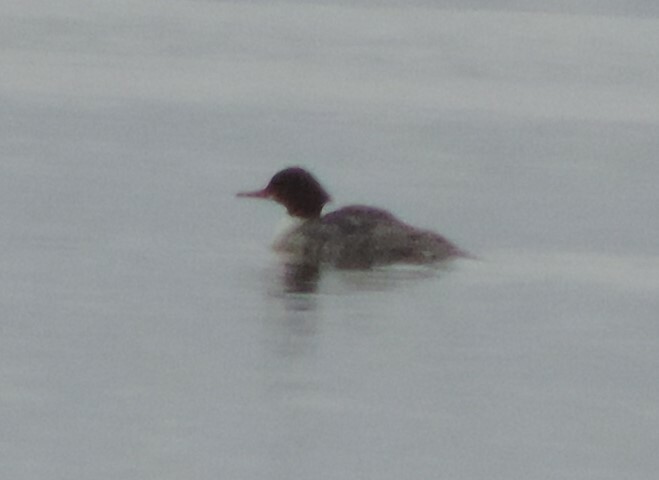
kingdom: Animalia
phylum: Chordata
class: Aves
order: Anseriformes
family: Anatidae
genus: Mergus
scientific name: Mergus merganser
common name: Common merganser
